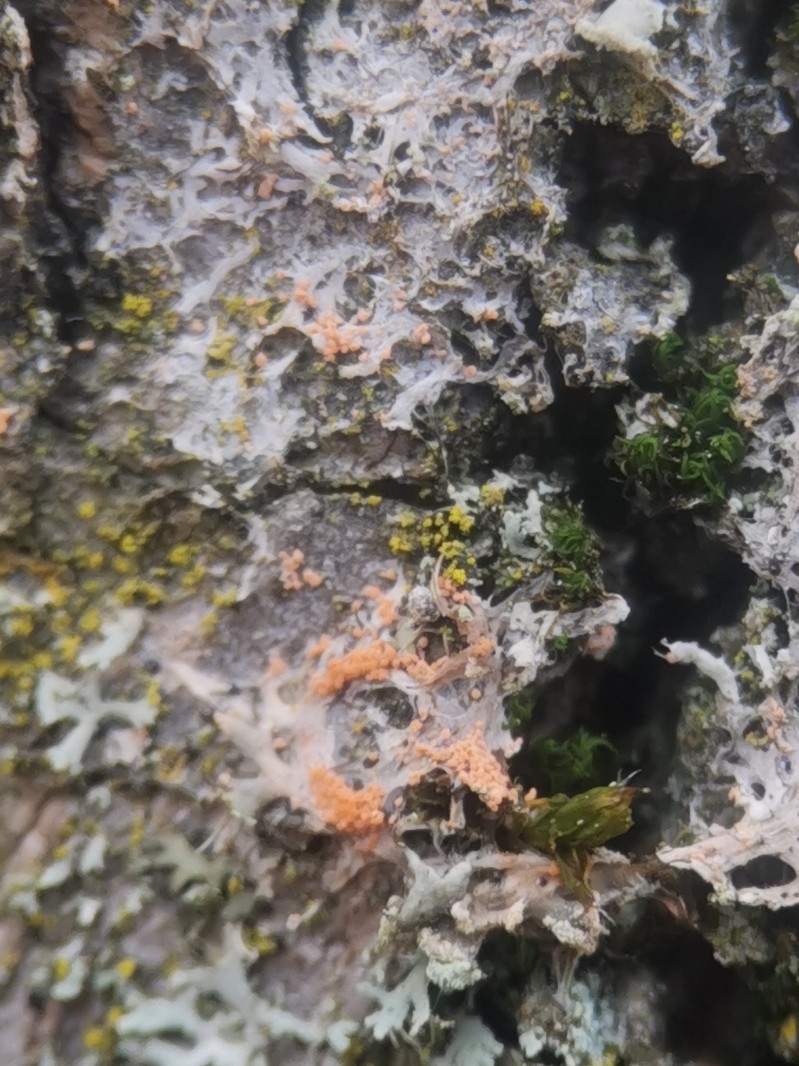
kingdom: Fungi
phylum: Basidiomycota
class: Agaricomycetes
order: Corticiales
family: Corticiaceae
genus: Erythricium
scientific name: Erythricium aurantiacum
